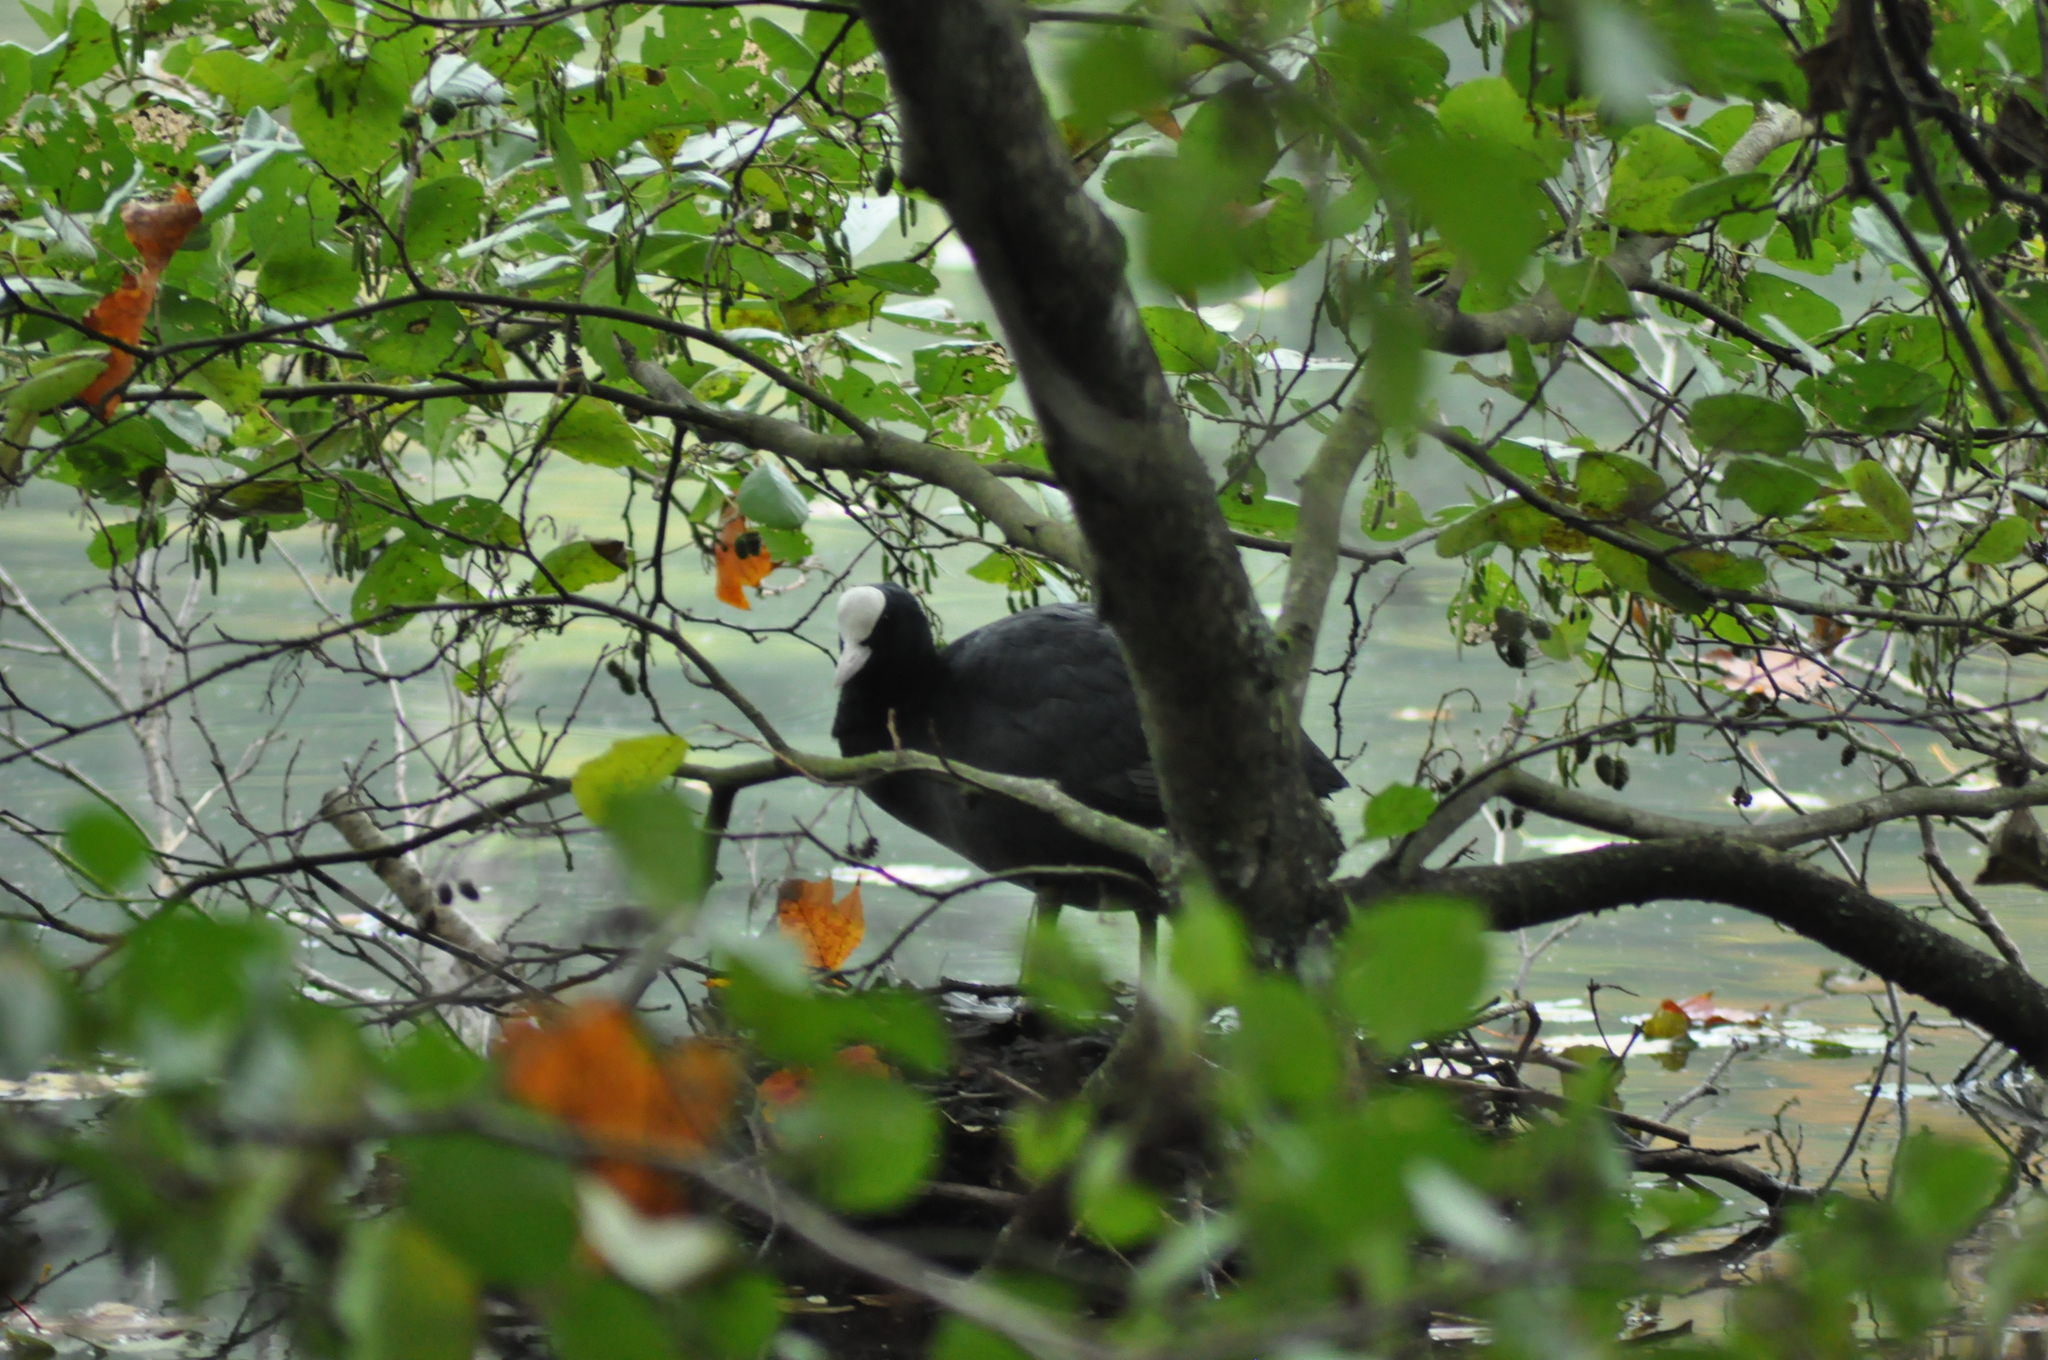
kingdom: Animalia
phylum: Chordata
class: Aves
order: Gruiformes
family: Rallidae
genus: Fulica
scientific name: Fulica atra
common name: Eurasian coot
